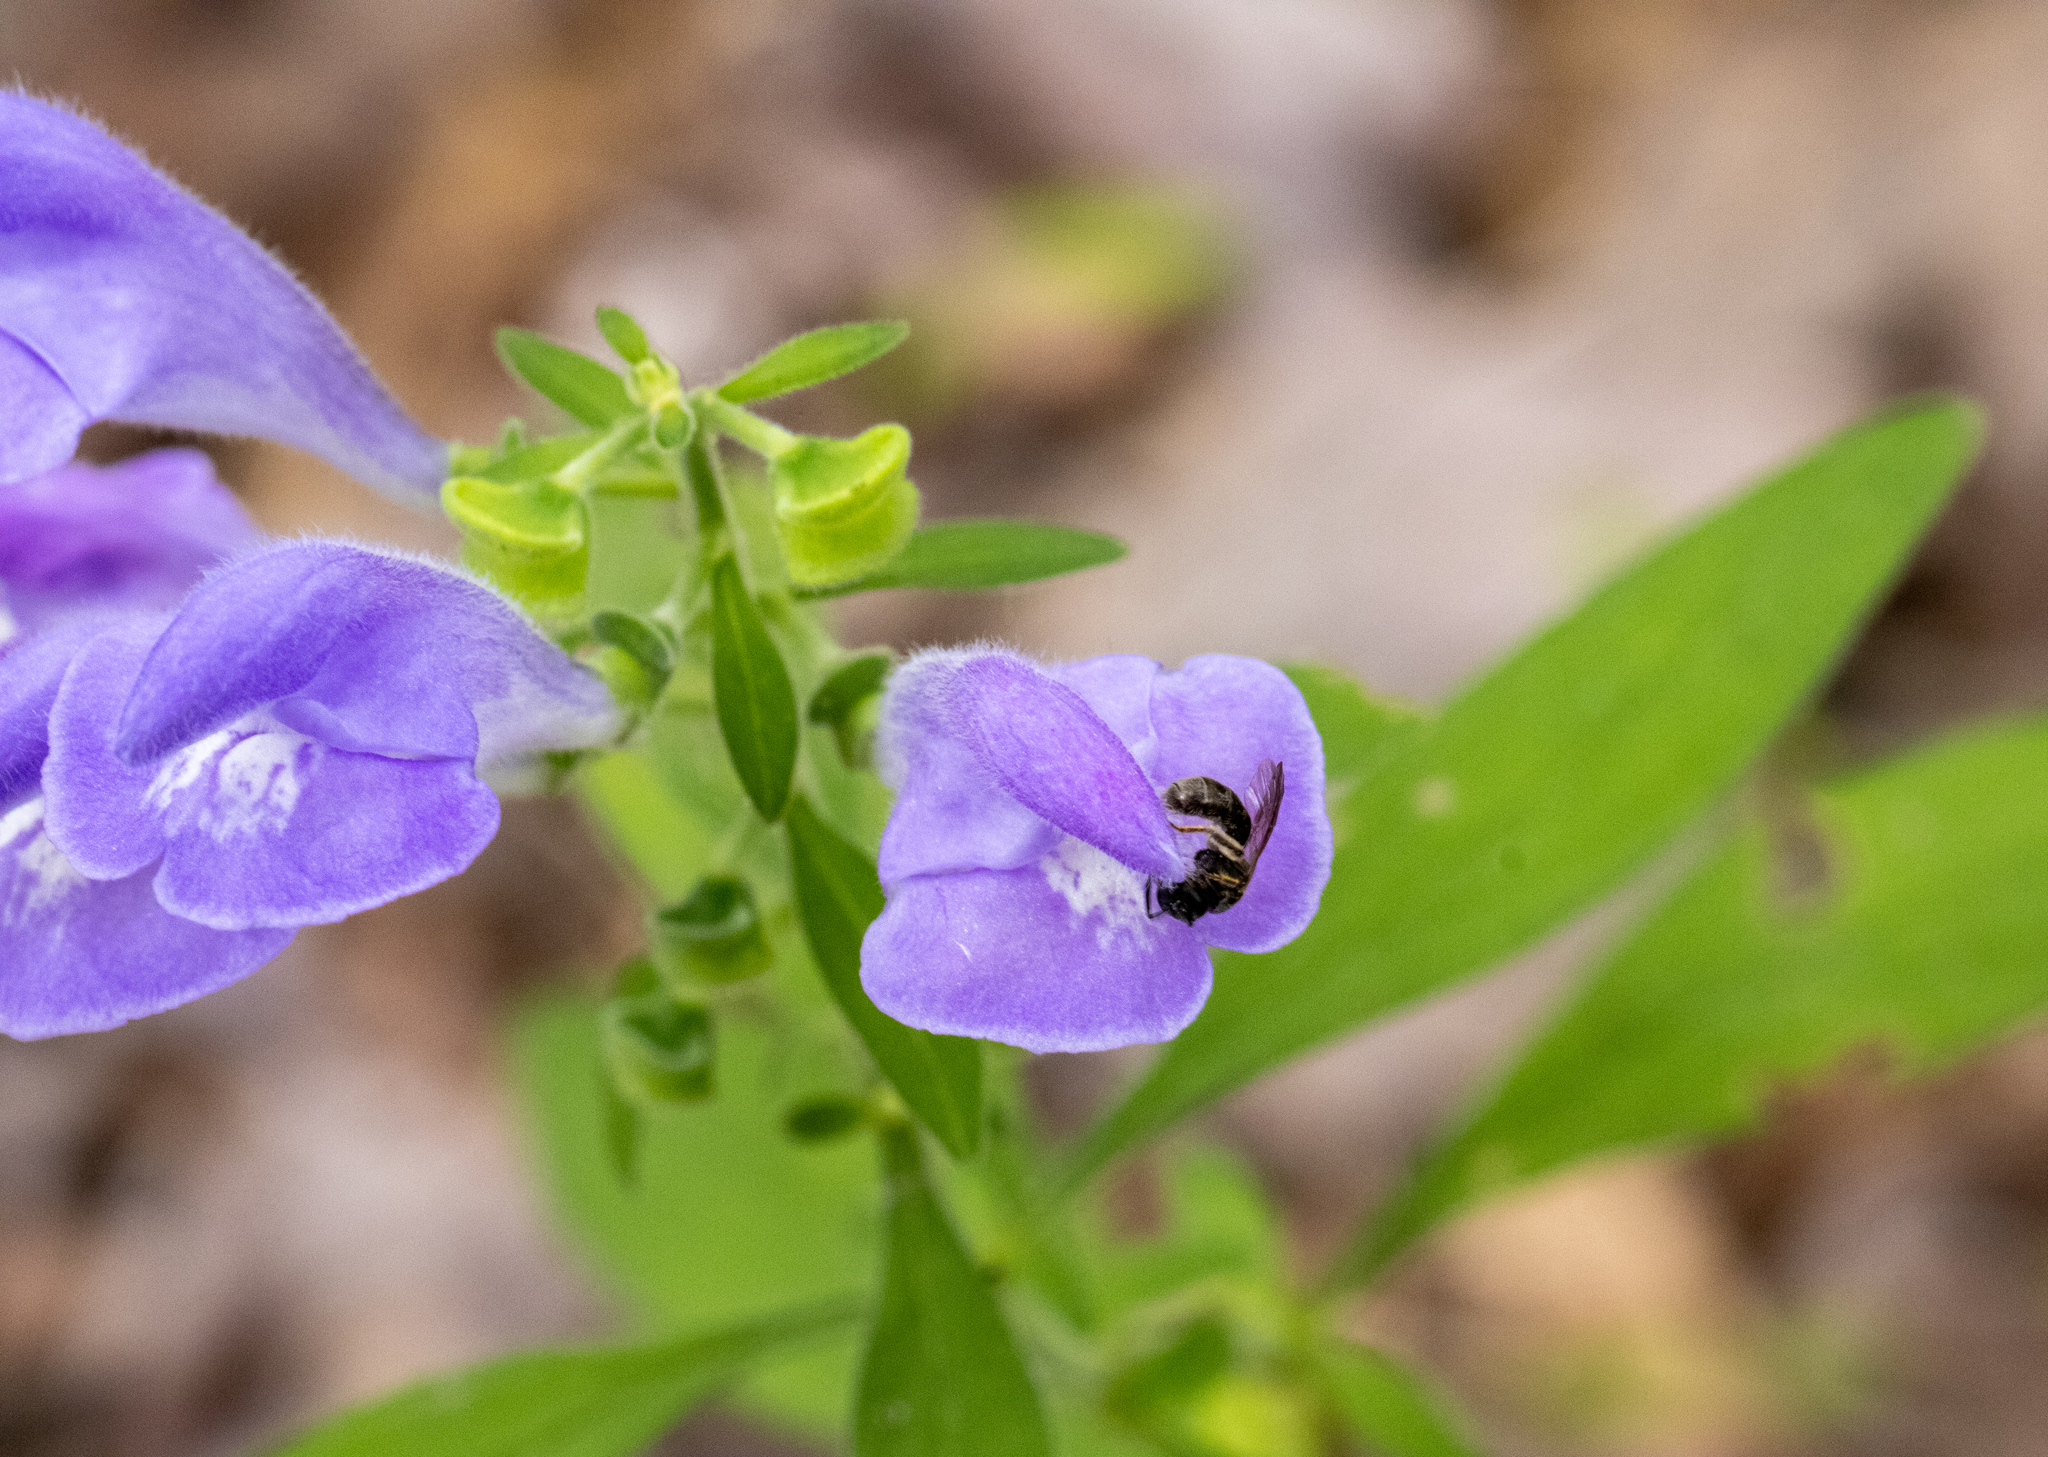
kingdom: Plantae
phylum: Tracheophyta
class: Magnoliopsida
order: Lamiales
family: Lamiaceae
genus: Scutellaria
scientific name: Scutellaria integrifolia
